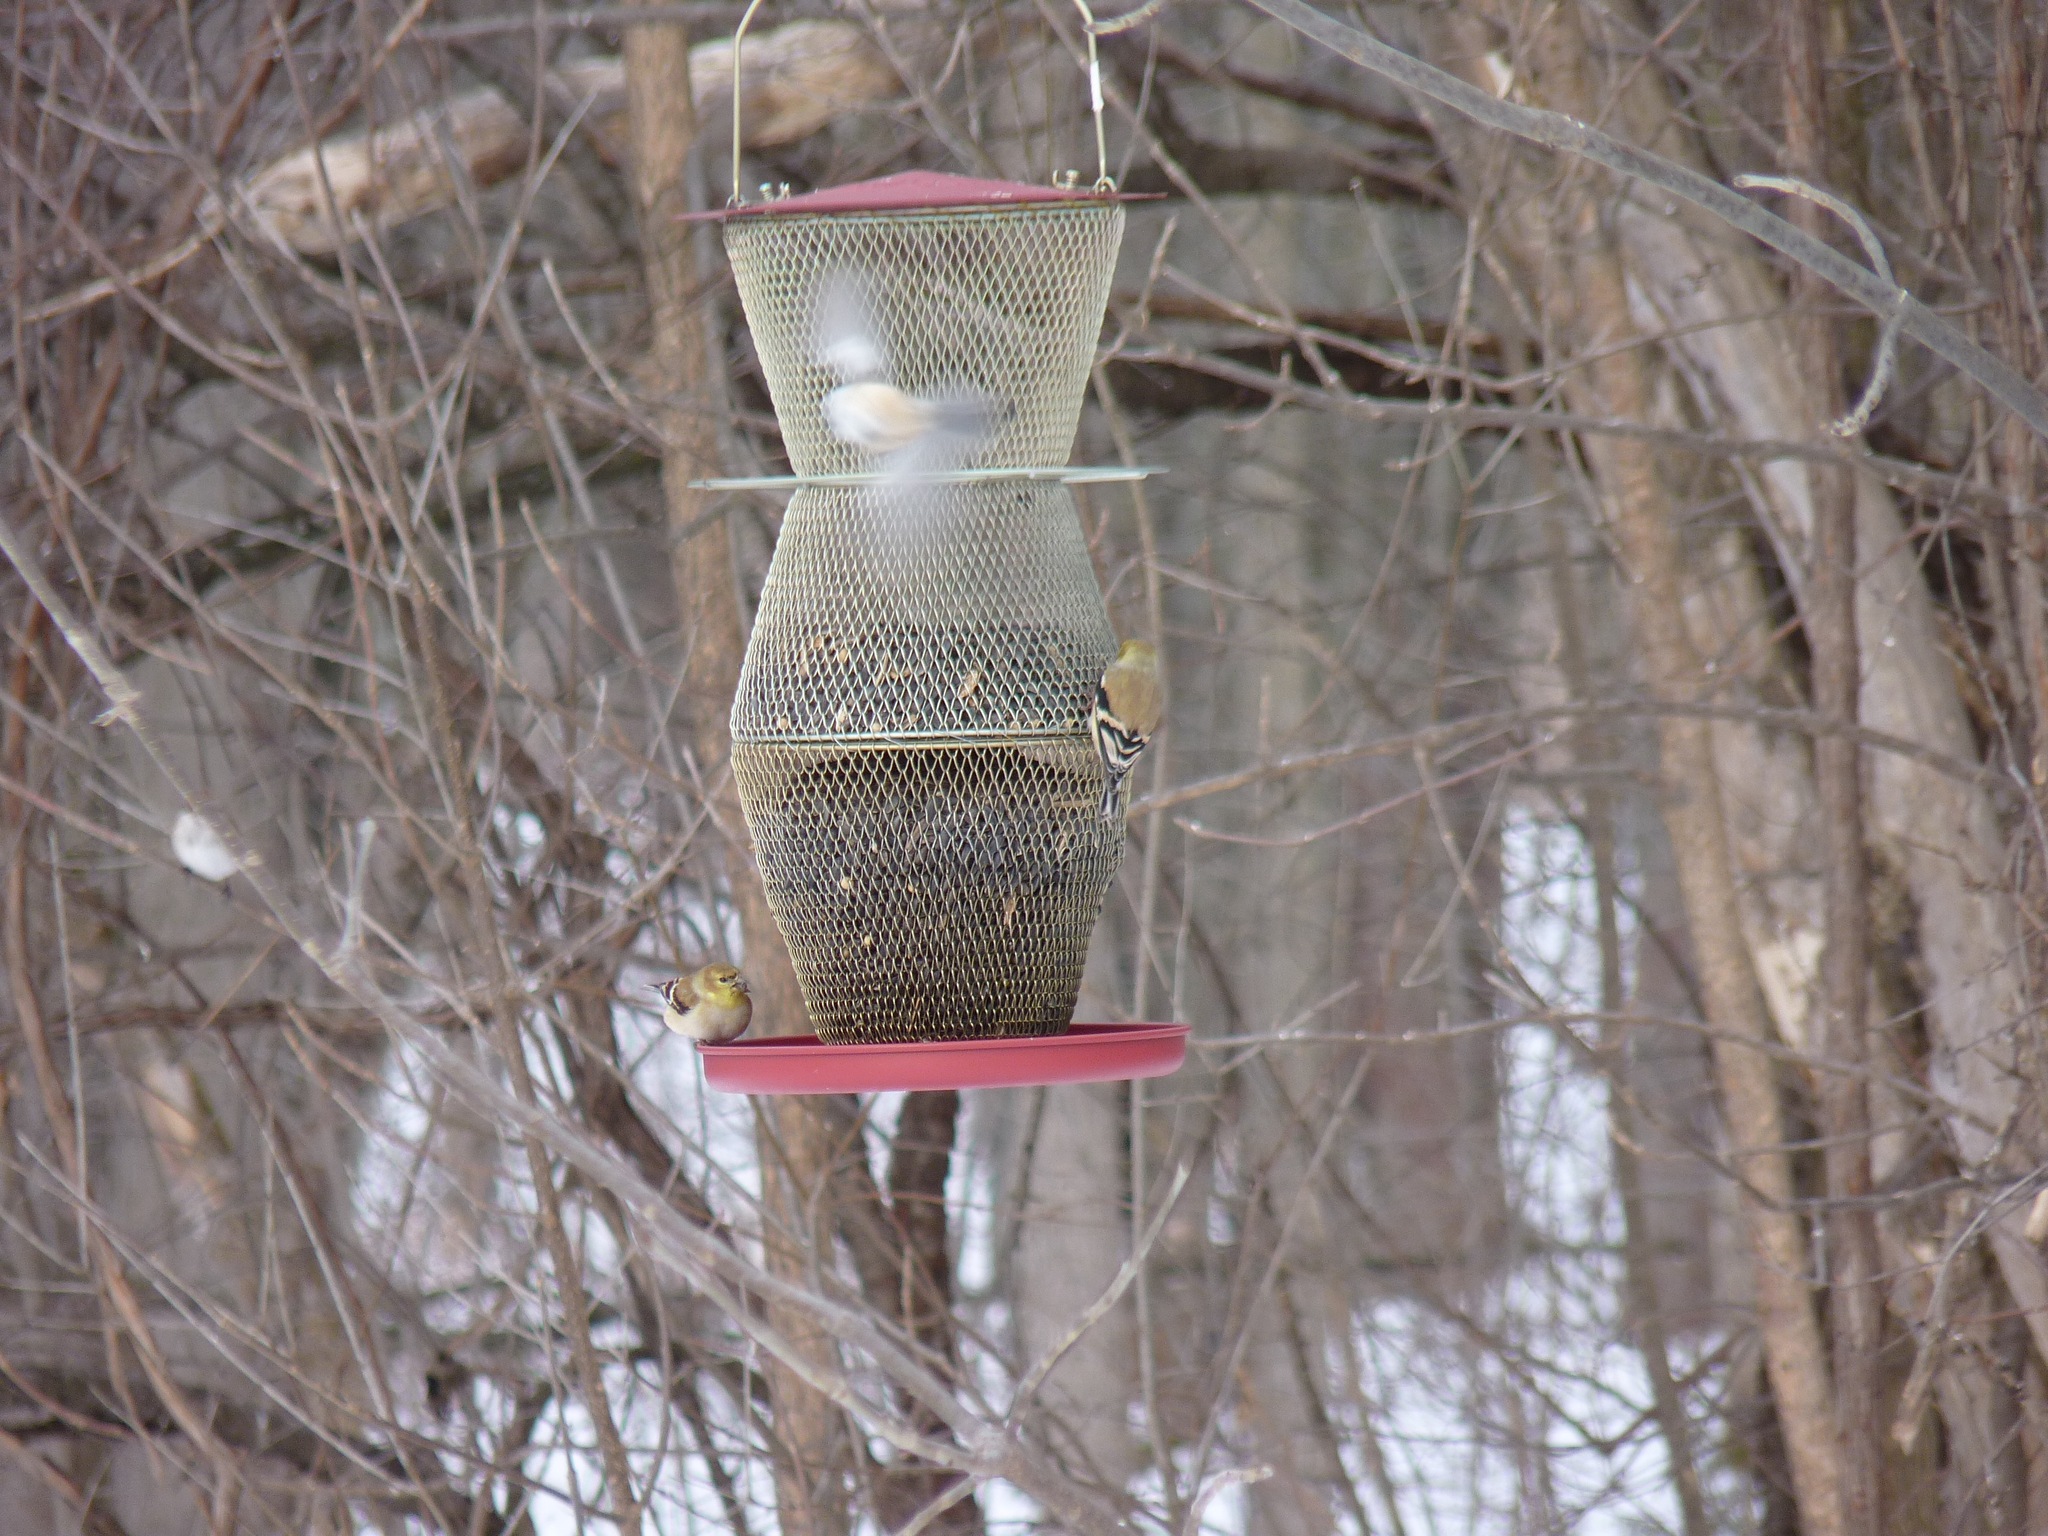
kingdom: Animalia
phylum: Chordata
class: Aves
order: Passeriformes
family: Fringillidae
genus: Spinus
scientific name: Spinus tristis
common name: American goldfinch
